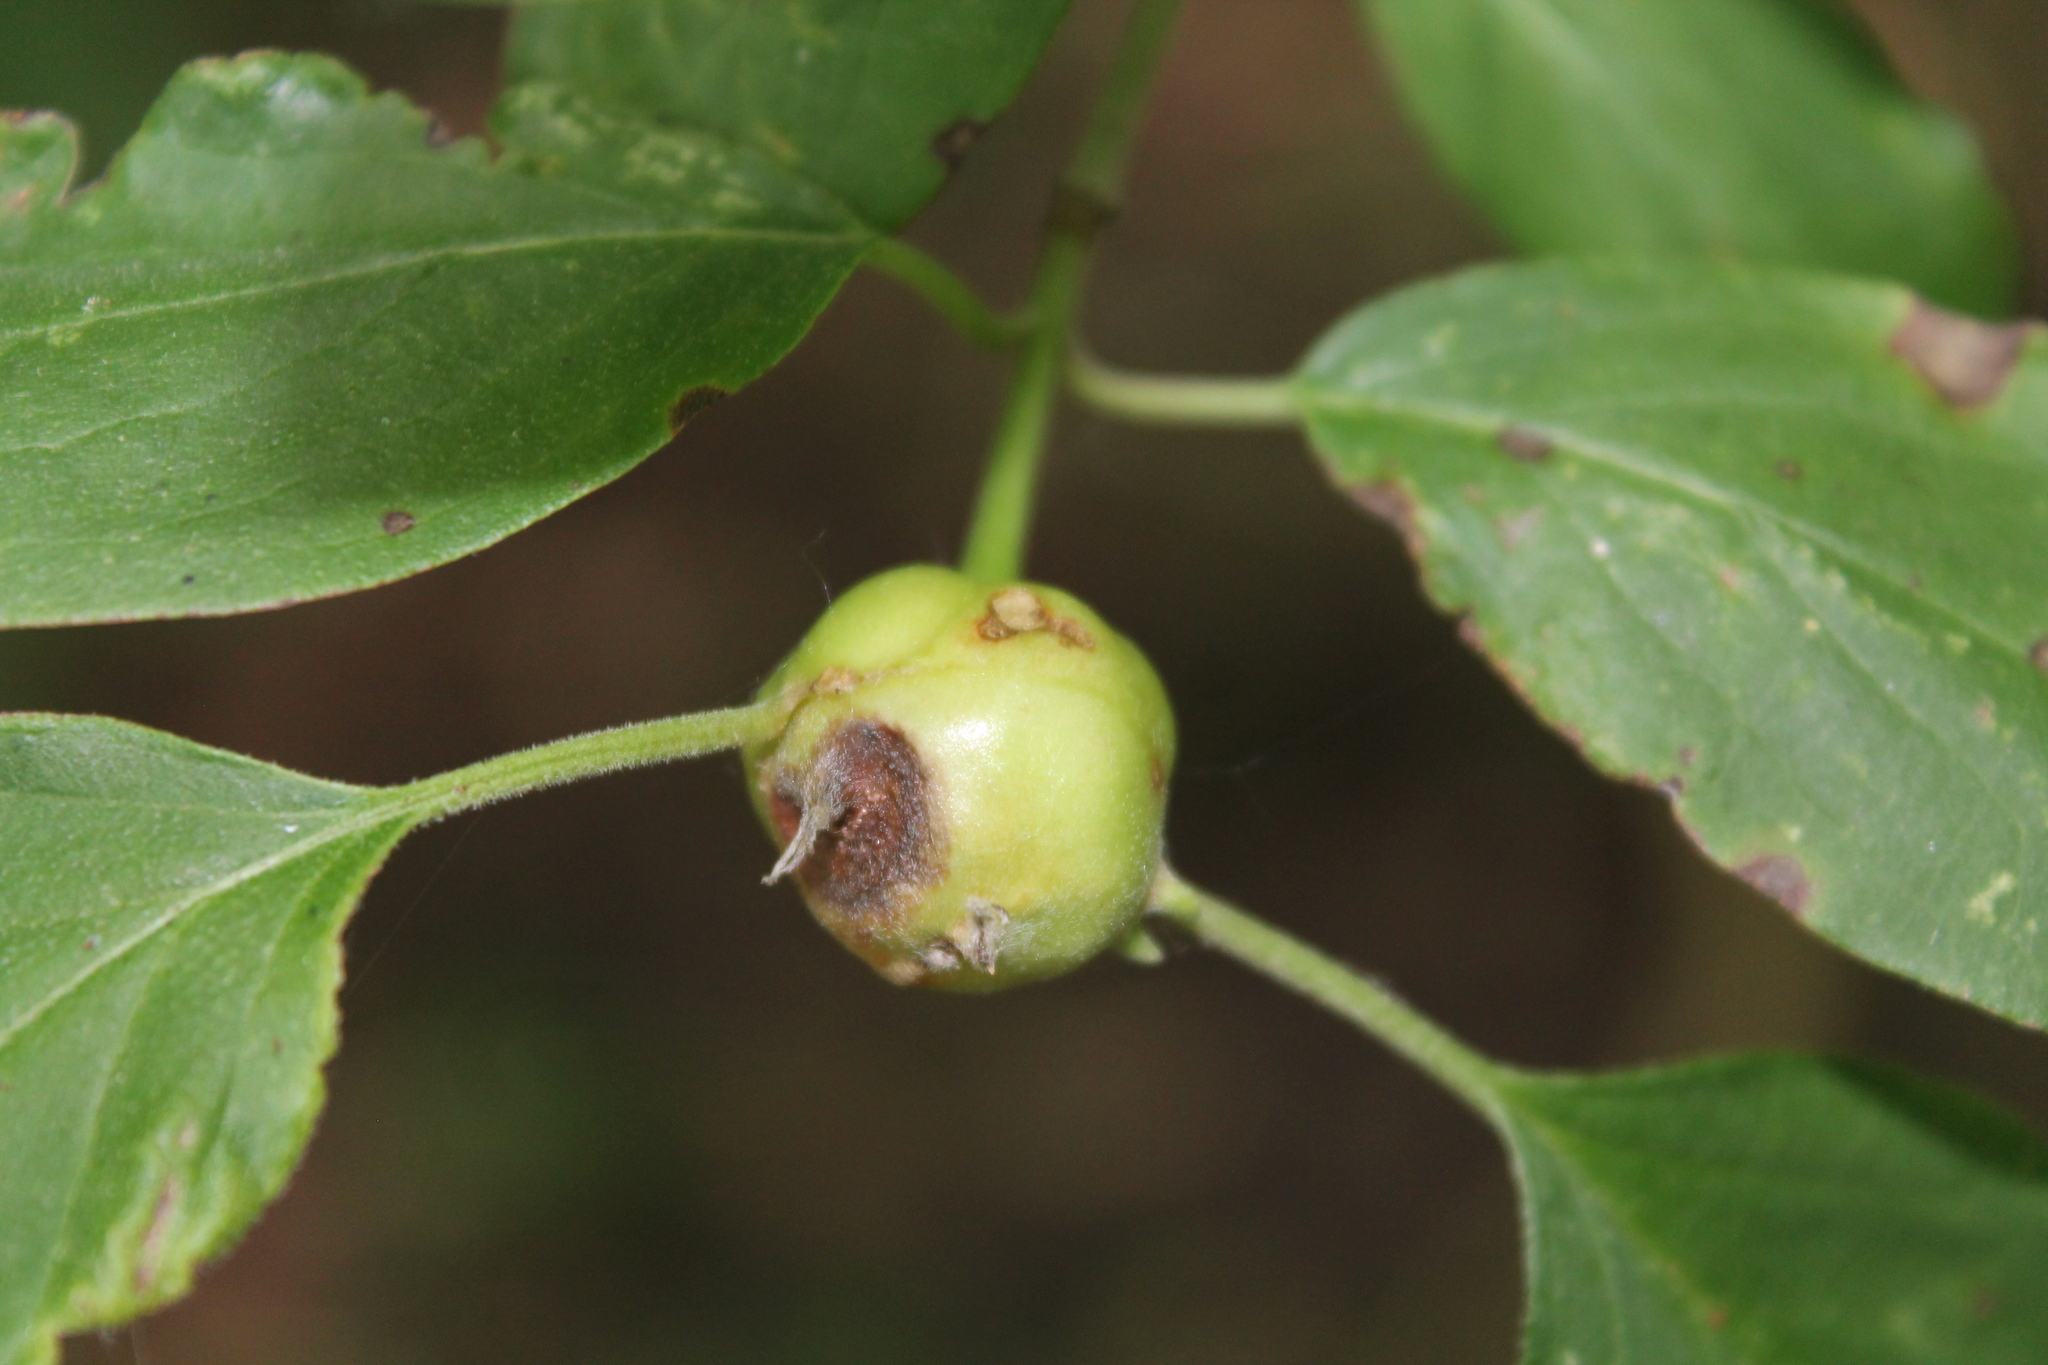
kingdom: Animalia
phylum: Arthropoda
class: Insecta
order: Diptera
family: Cecidomyiidae
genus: Resseliella
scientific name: Resseliella clavula
